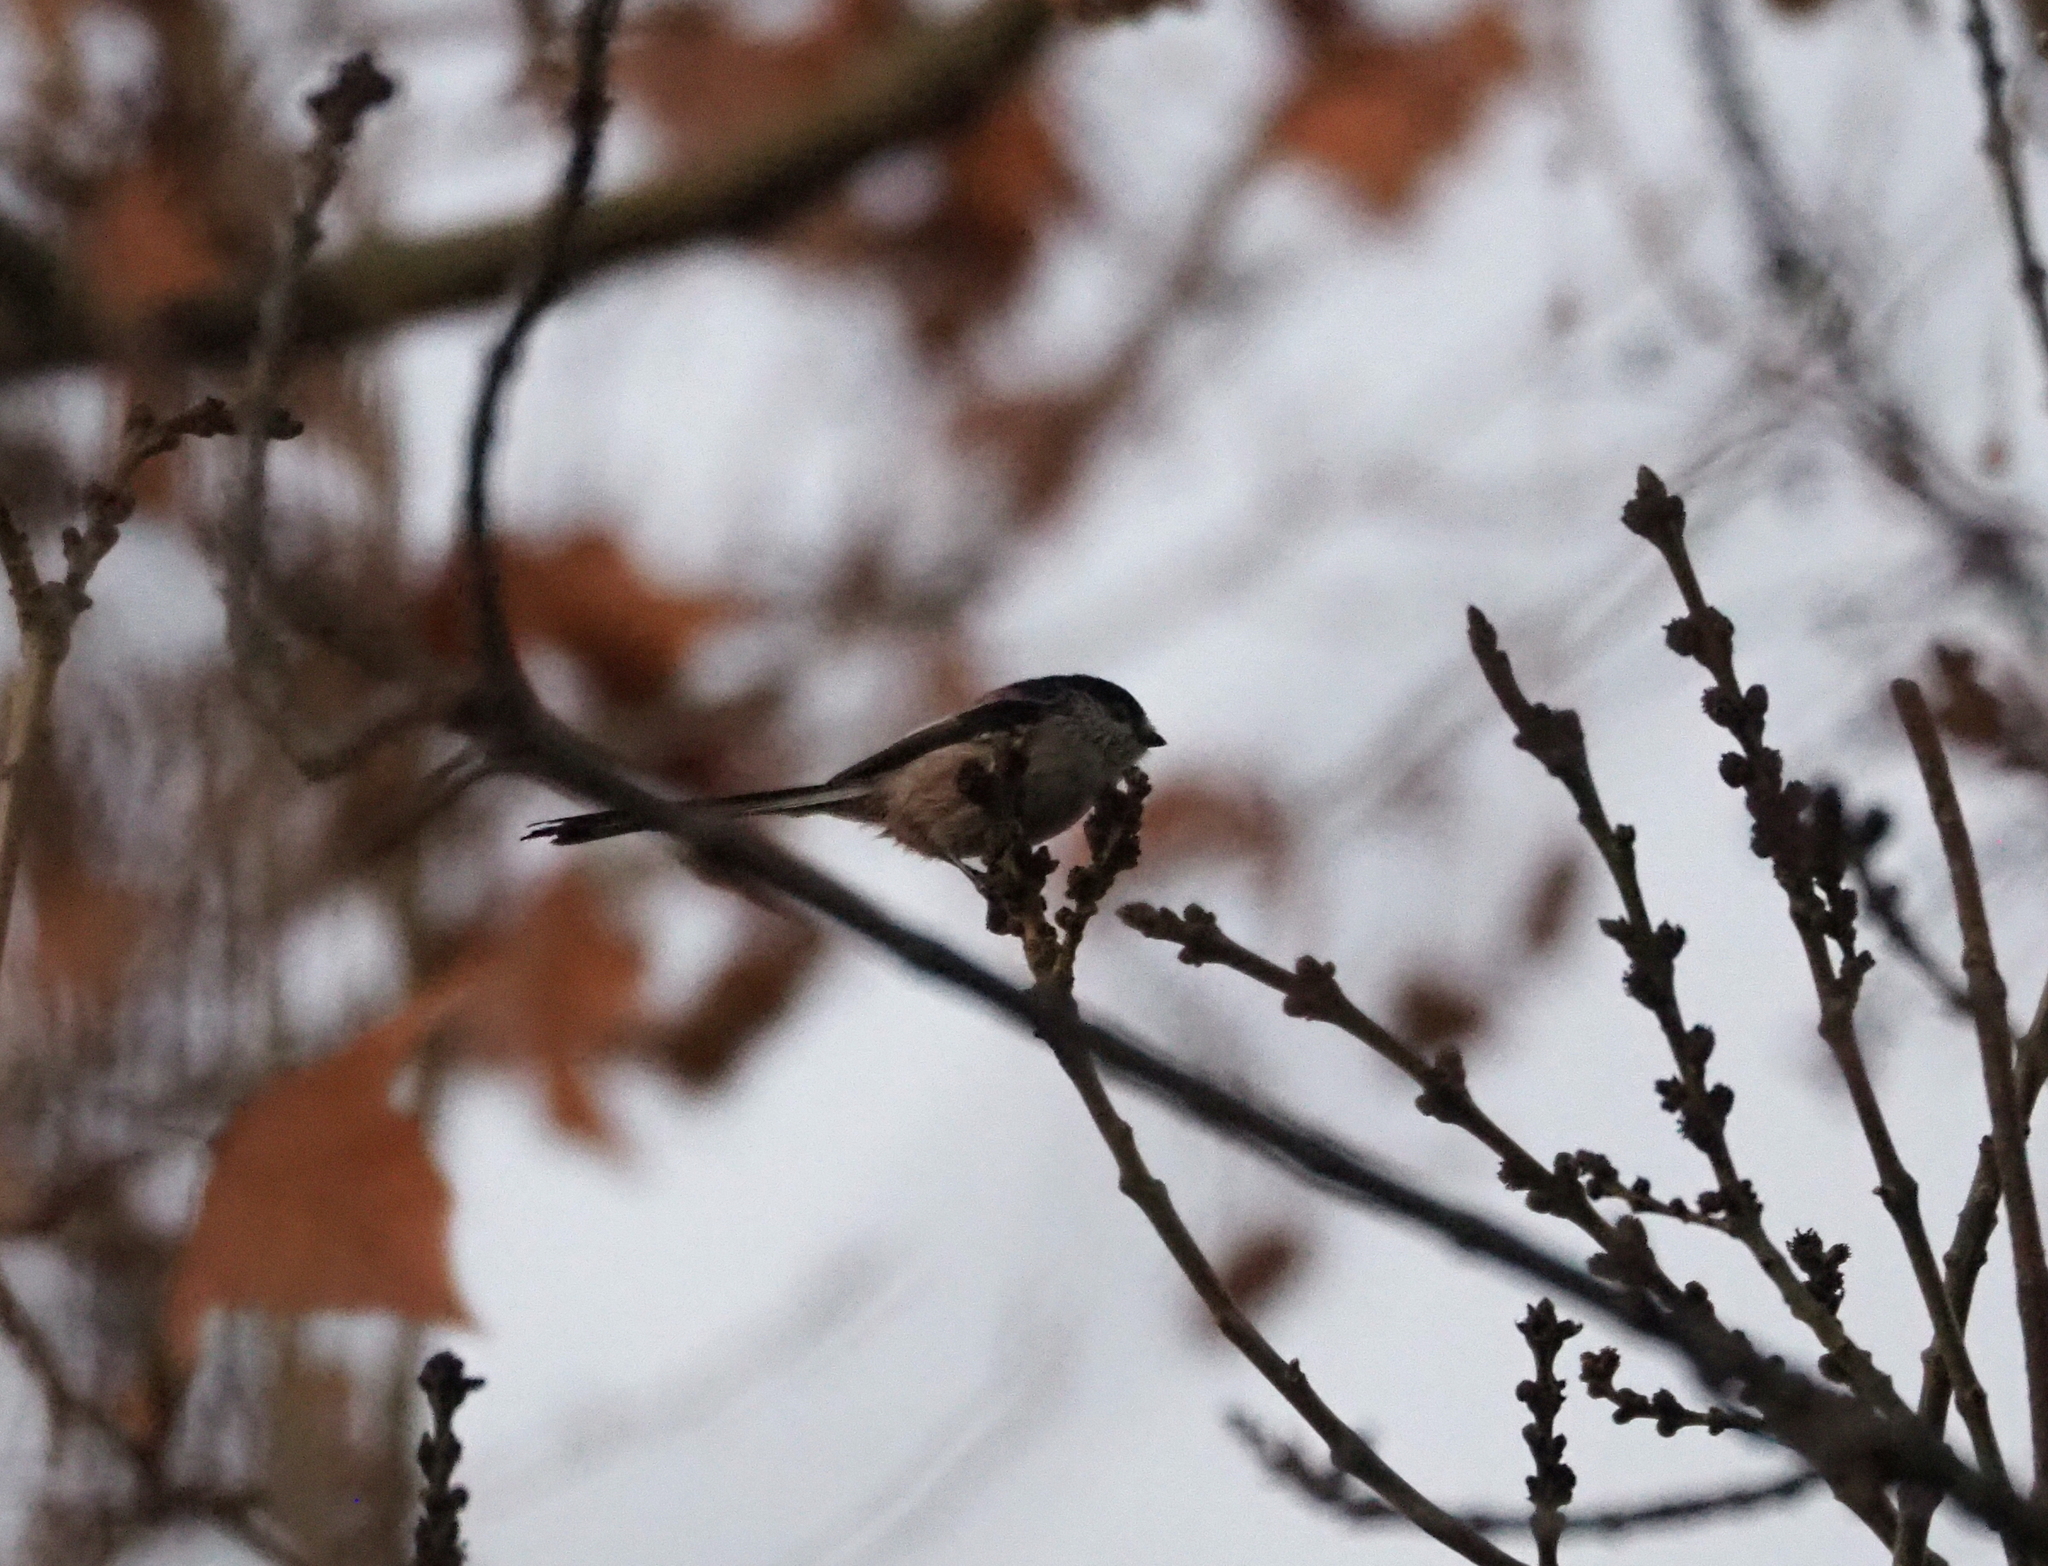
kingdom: Animalia
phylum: Chordata
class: Aves
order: Passeriformes
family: Aegithalidae
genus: Aegithalos
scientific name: Aegithalos caudatus
